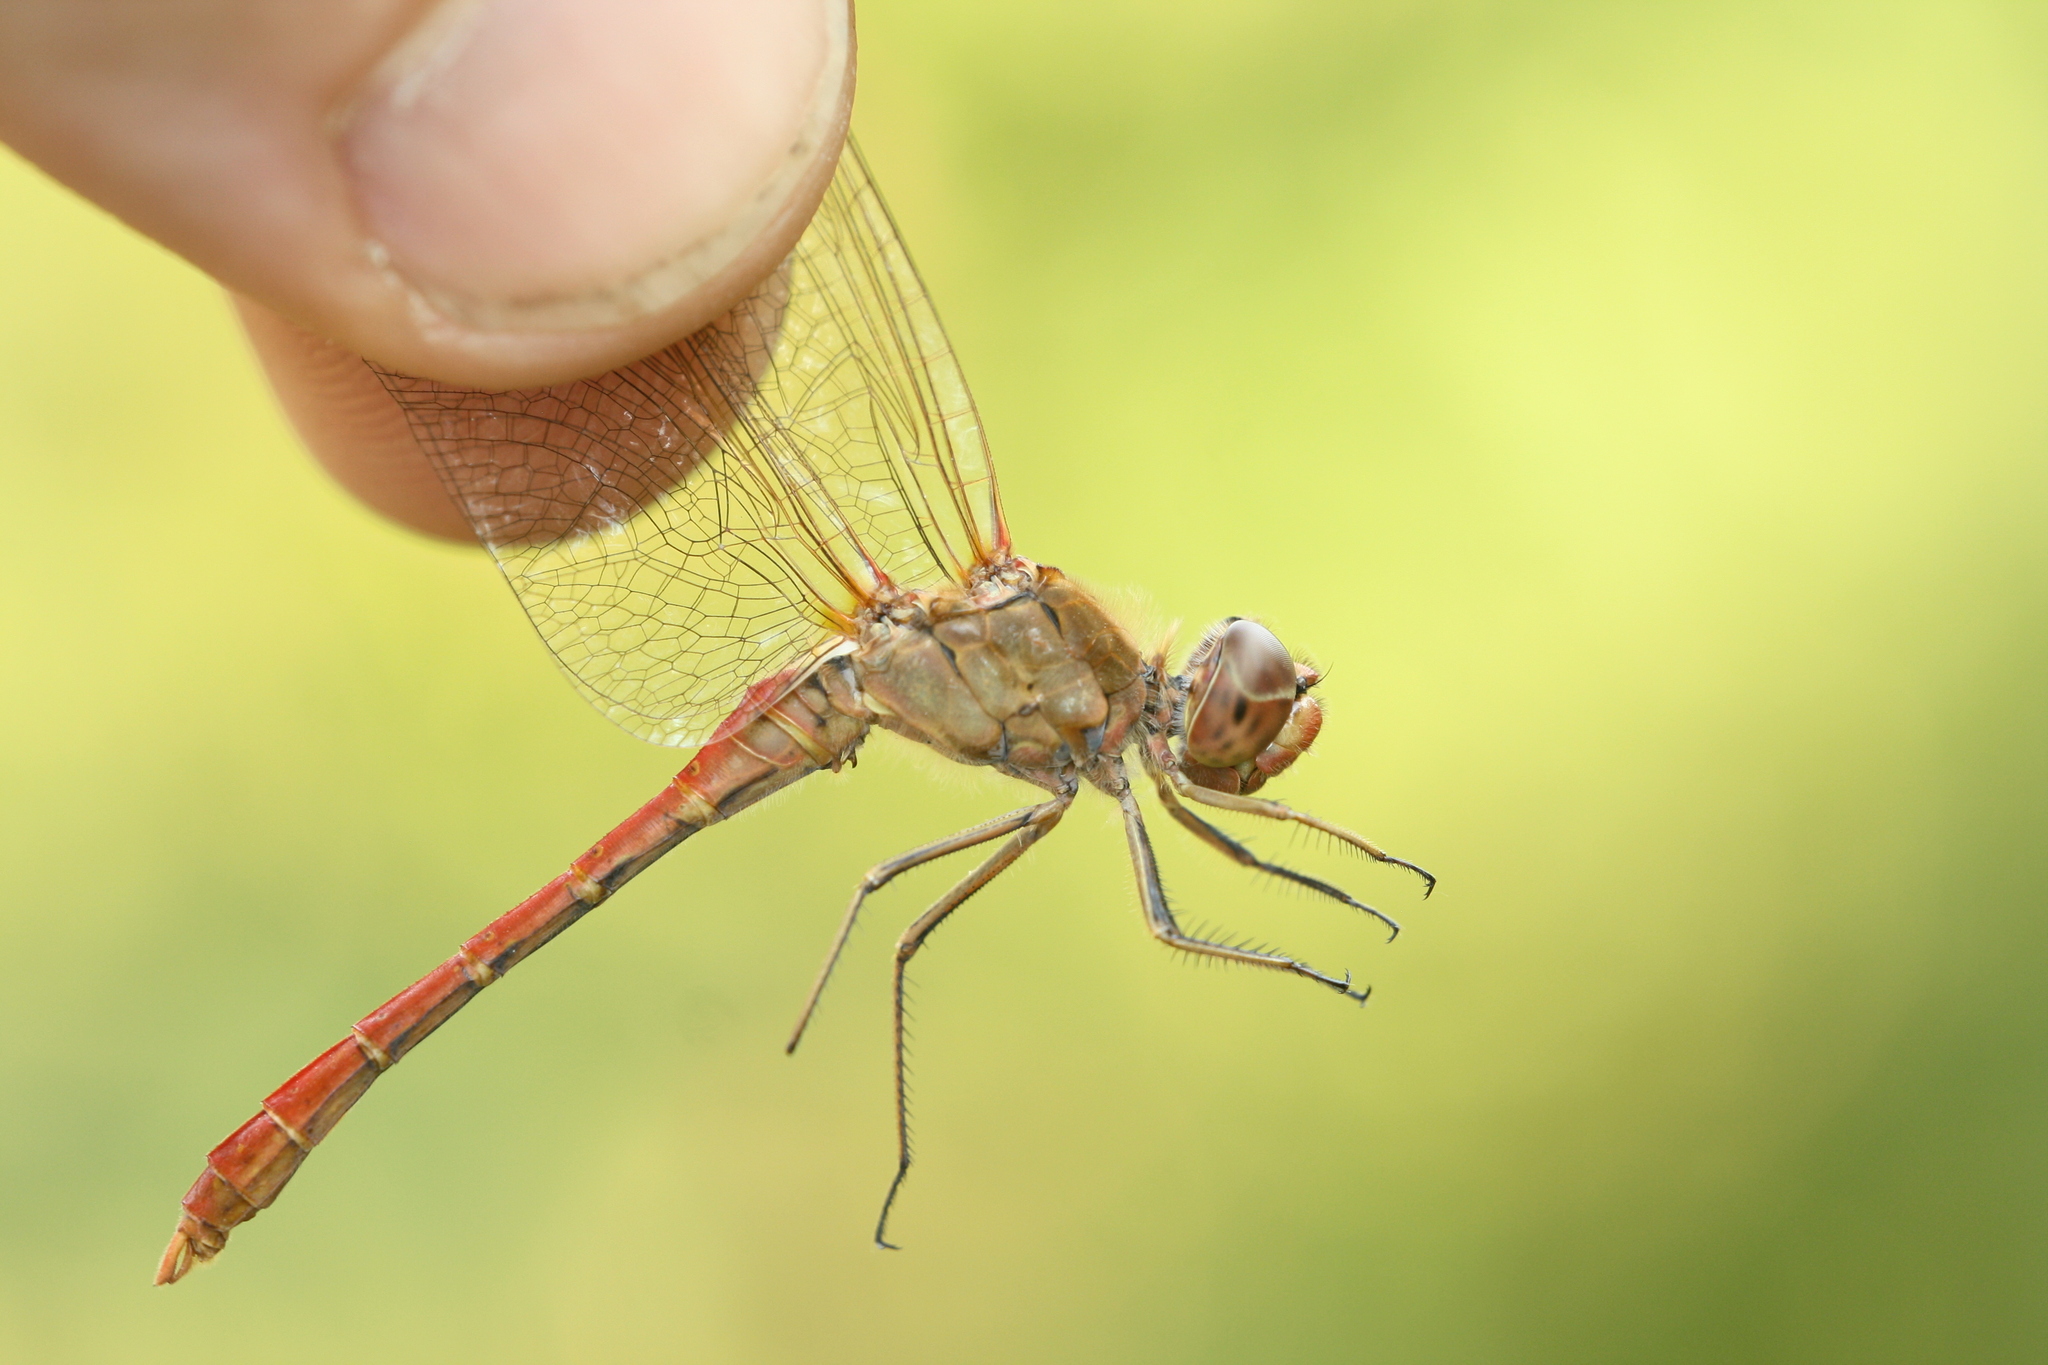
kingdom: Animalia
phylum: Arthropoda
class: Insecta
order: Odonata
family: Libellulidae
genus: Sympetrum
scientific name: Sympetrum meridionale
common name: Southern darter
